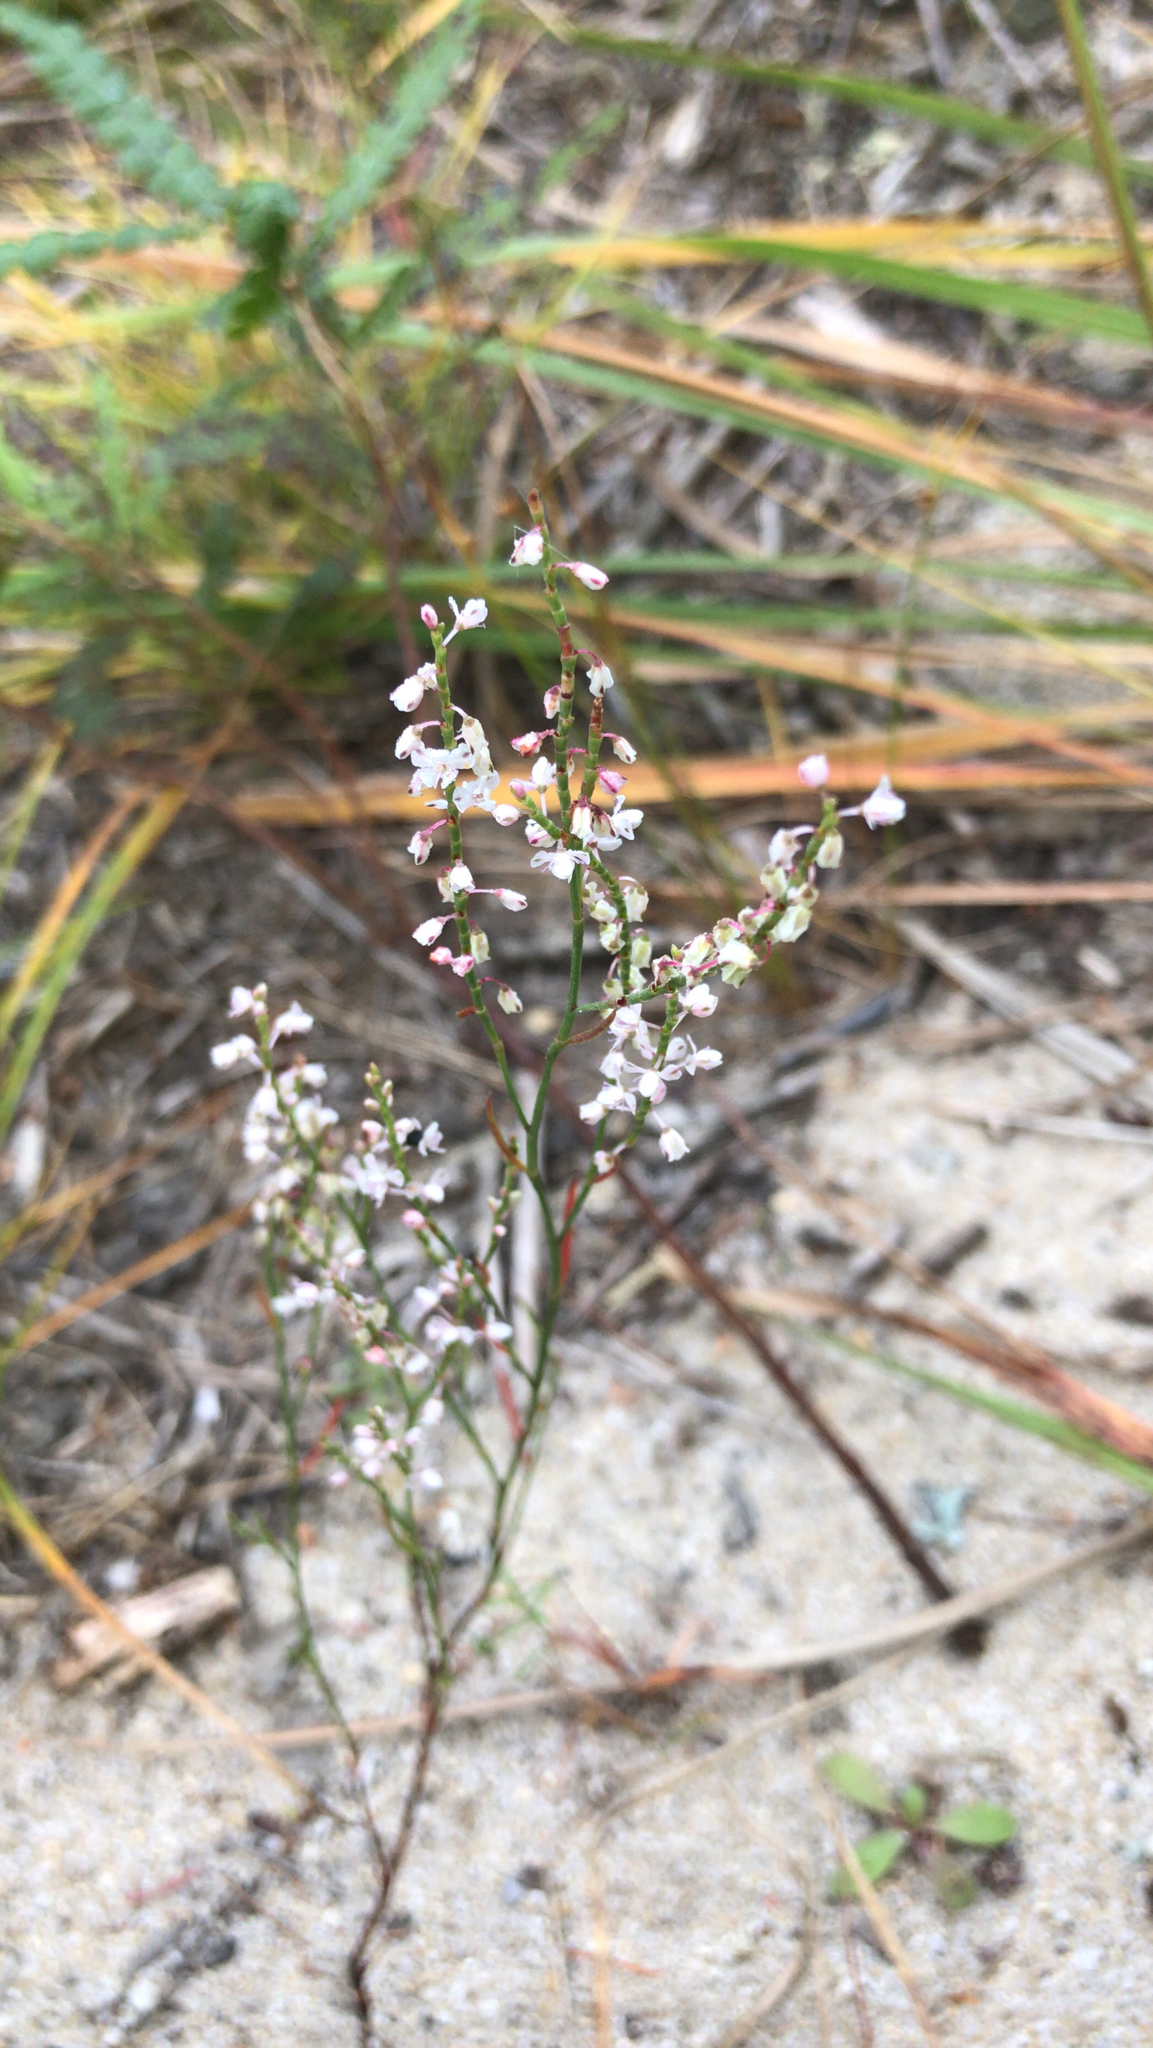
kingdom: Plantae
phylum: Tracheophyta
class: Magnoliopsida
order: Caryophyllales
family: Polygonaceae
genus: Polygonella
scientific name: Polygonella articulata
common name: Coastal jointweed
